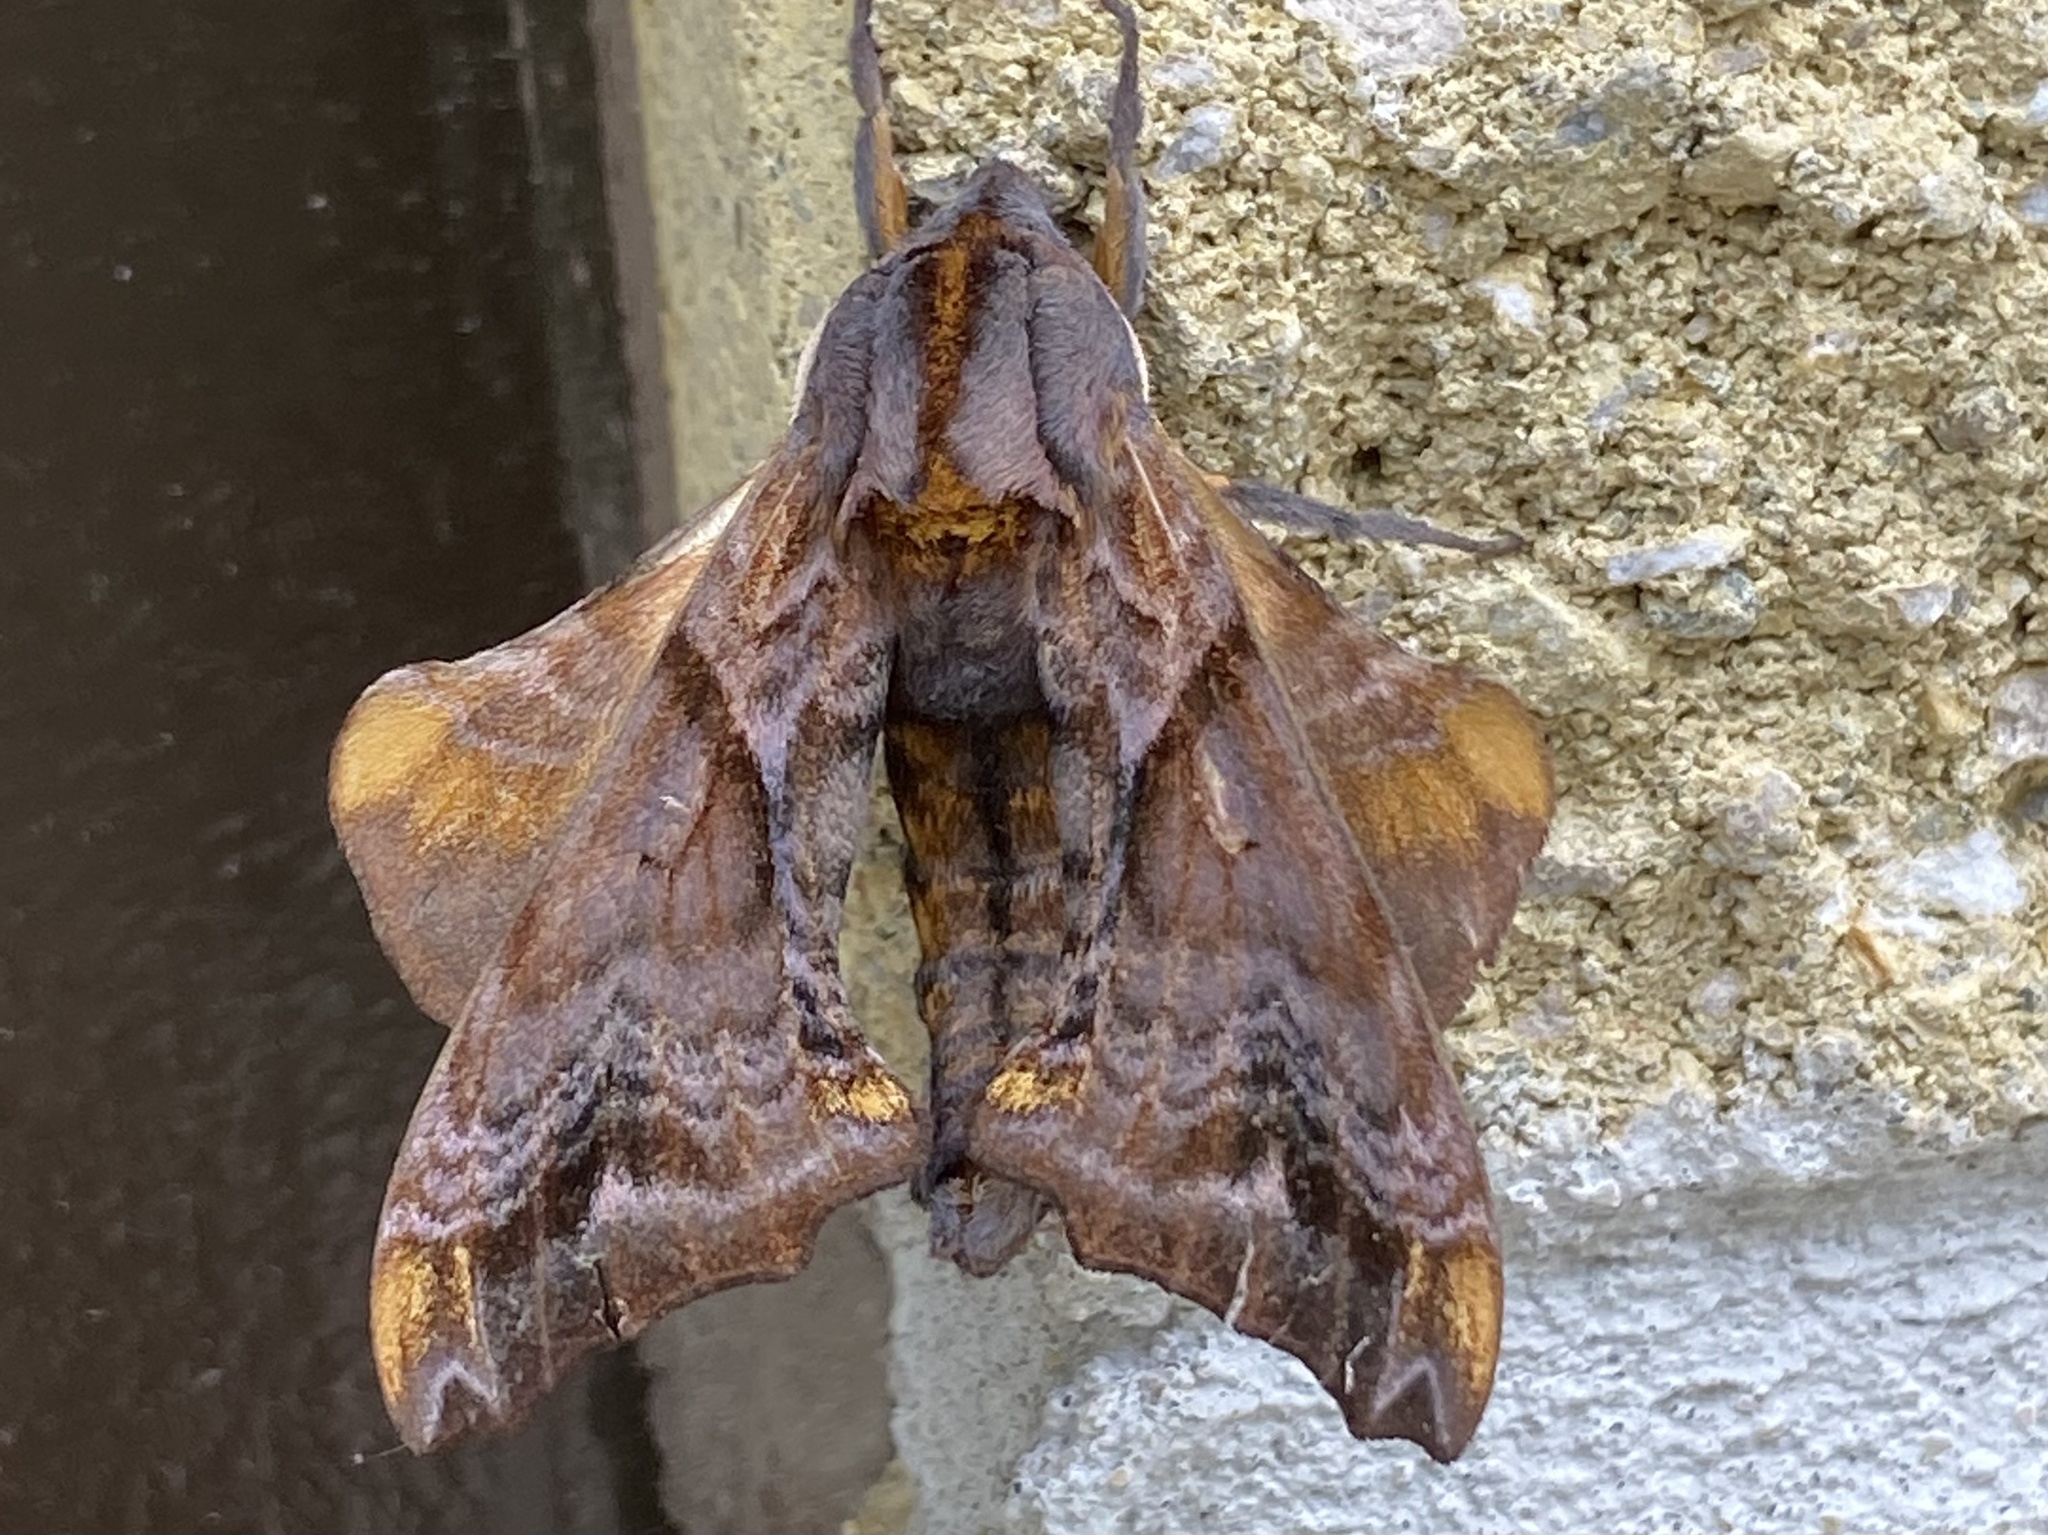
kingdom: Animalia
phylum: Arthropoda
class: Insecta
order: Lepidoptera
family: Sphingidae
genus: Paonias
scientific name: Paonias myops
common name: Small-eyed sphinx
